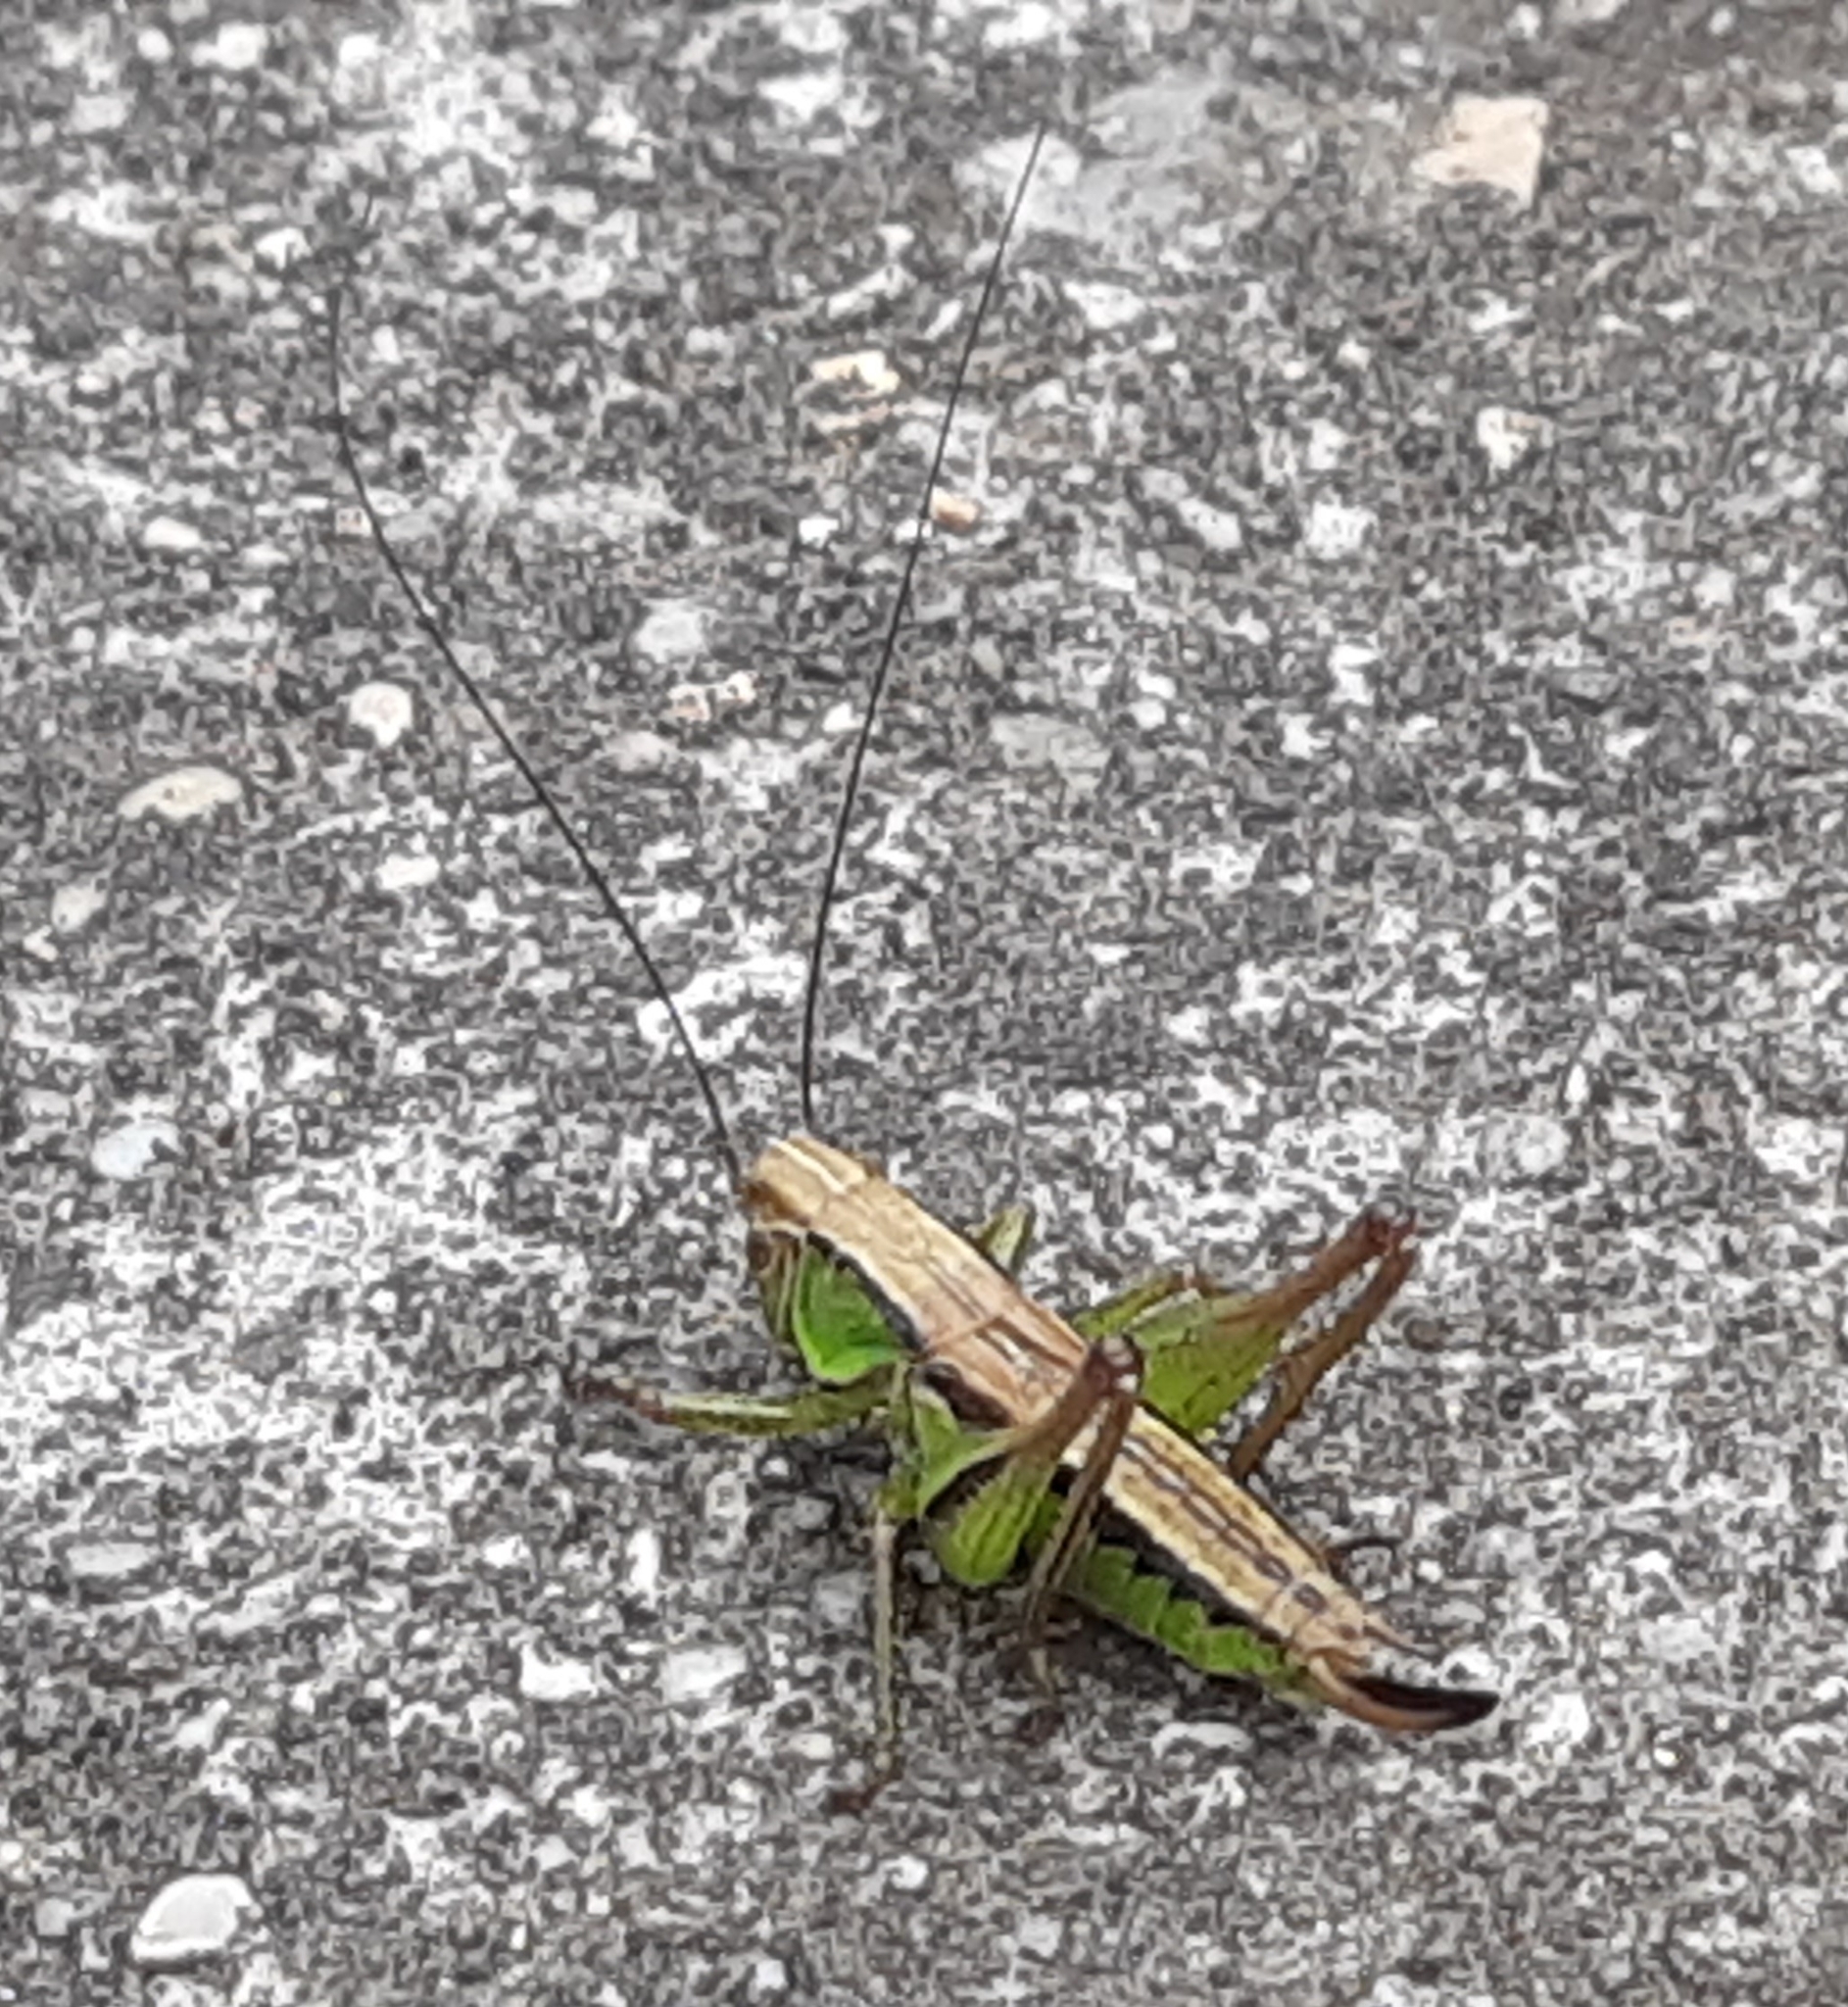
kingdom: Animalia
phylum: Arthropoda
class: Insecta
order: Orthoptera
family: Tettigoniidae
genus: Roeseliana
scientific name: Roeseliana roeselii
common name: Roesel's bush cricket
